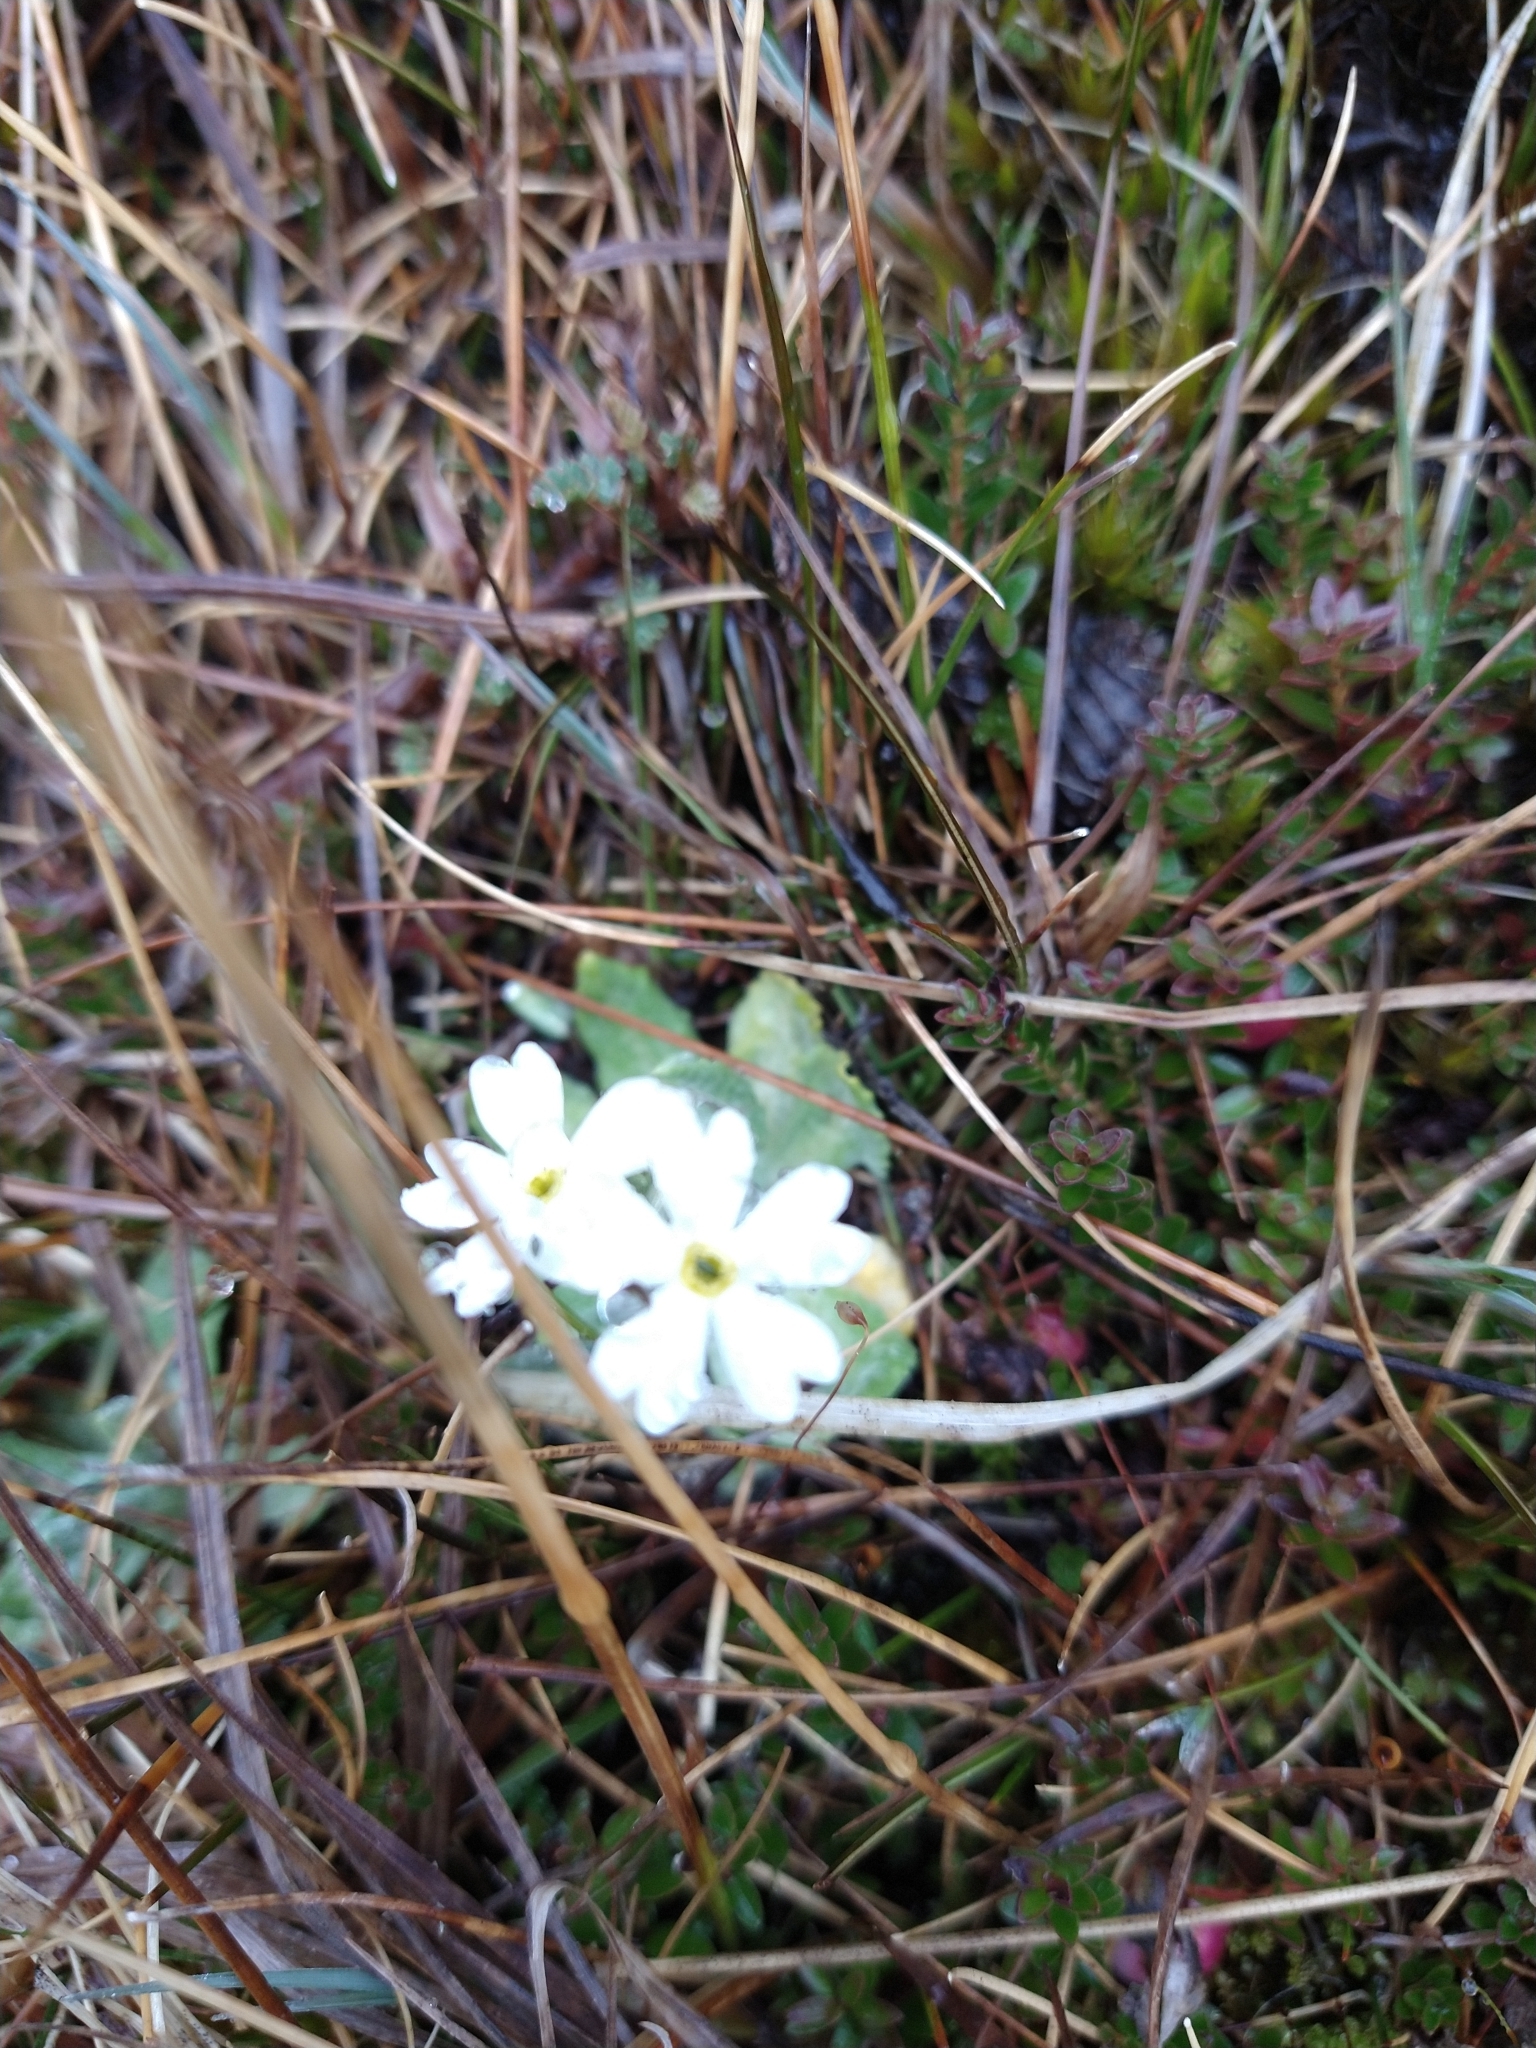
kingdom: Plantae
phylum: Tracheophyta
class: Magnoliopsida
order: Ericales
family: Primulaceae
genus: Primula
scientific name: Primula magellanica
